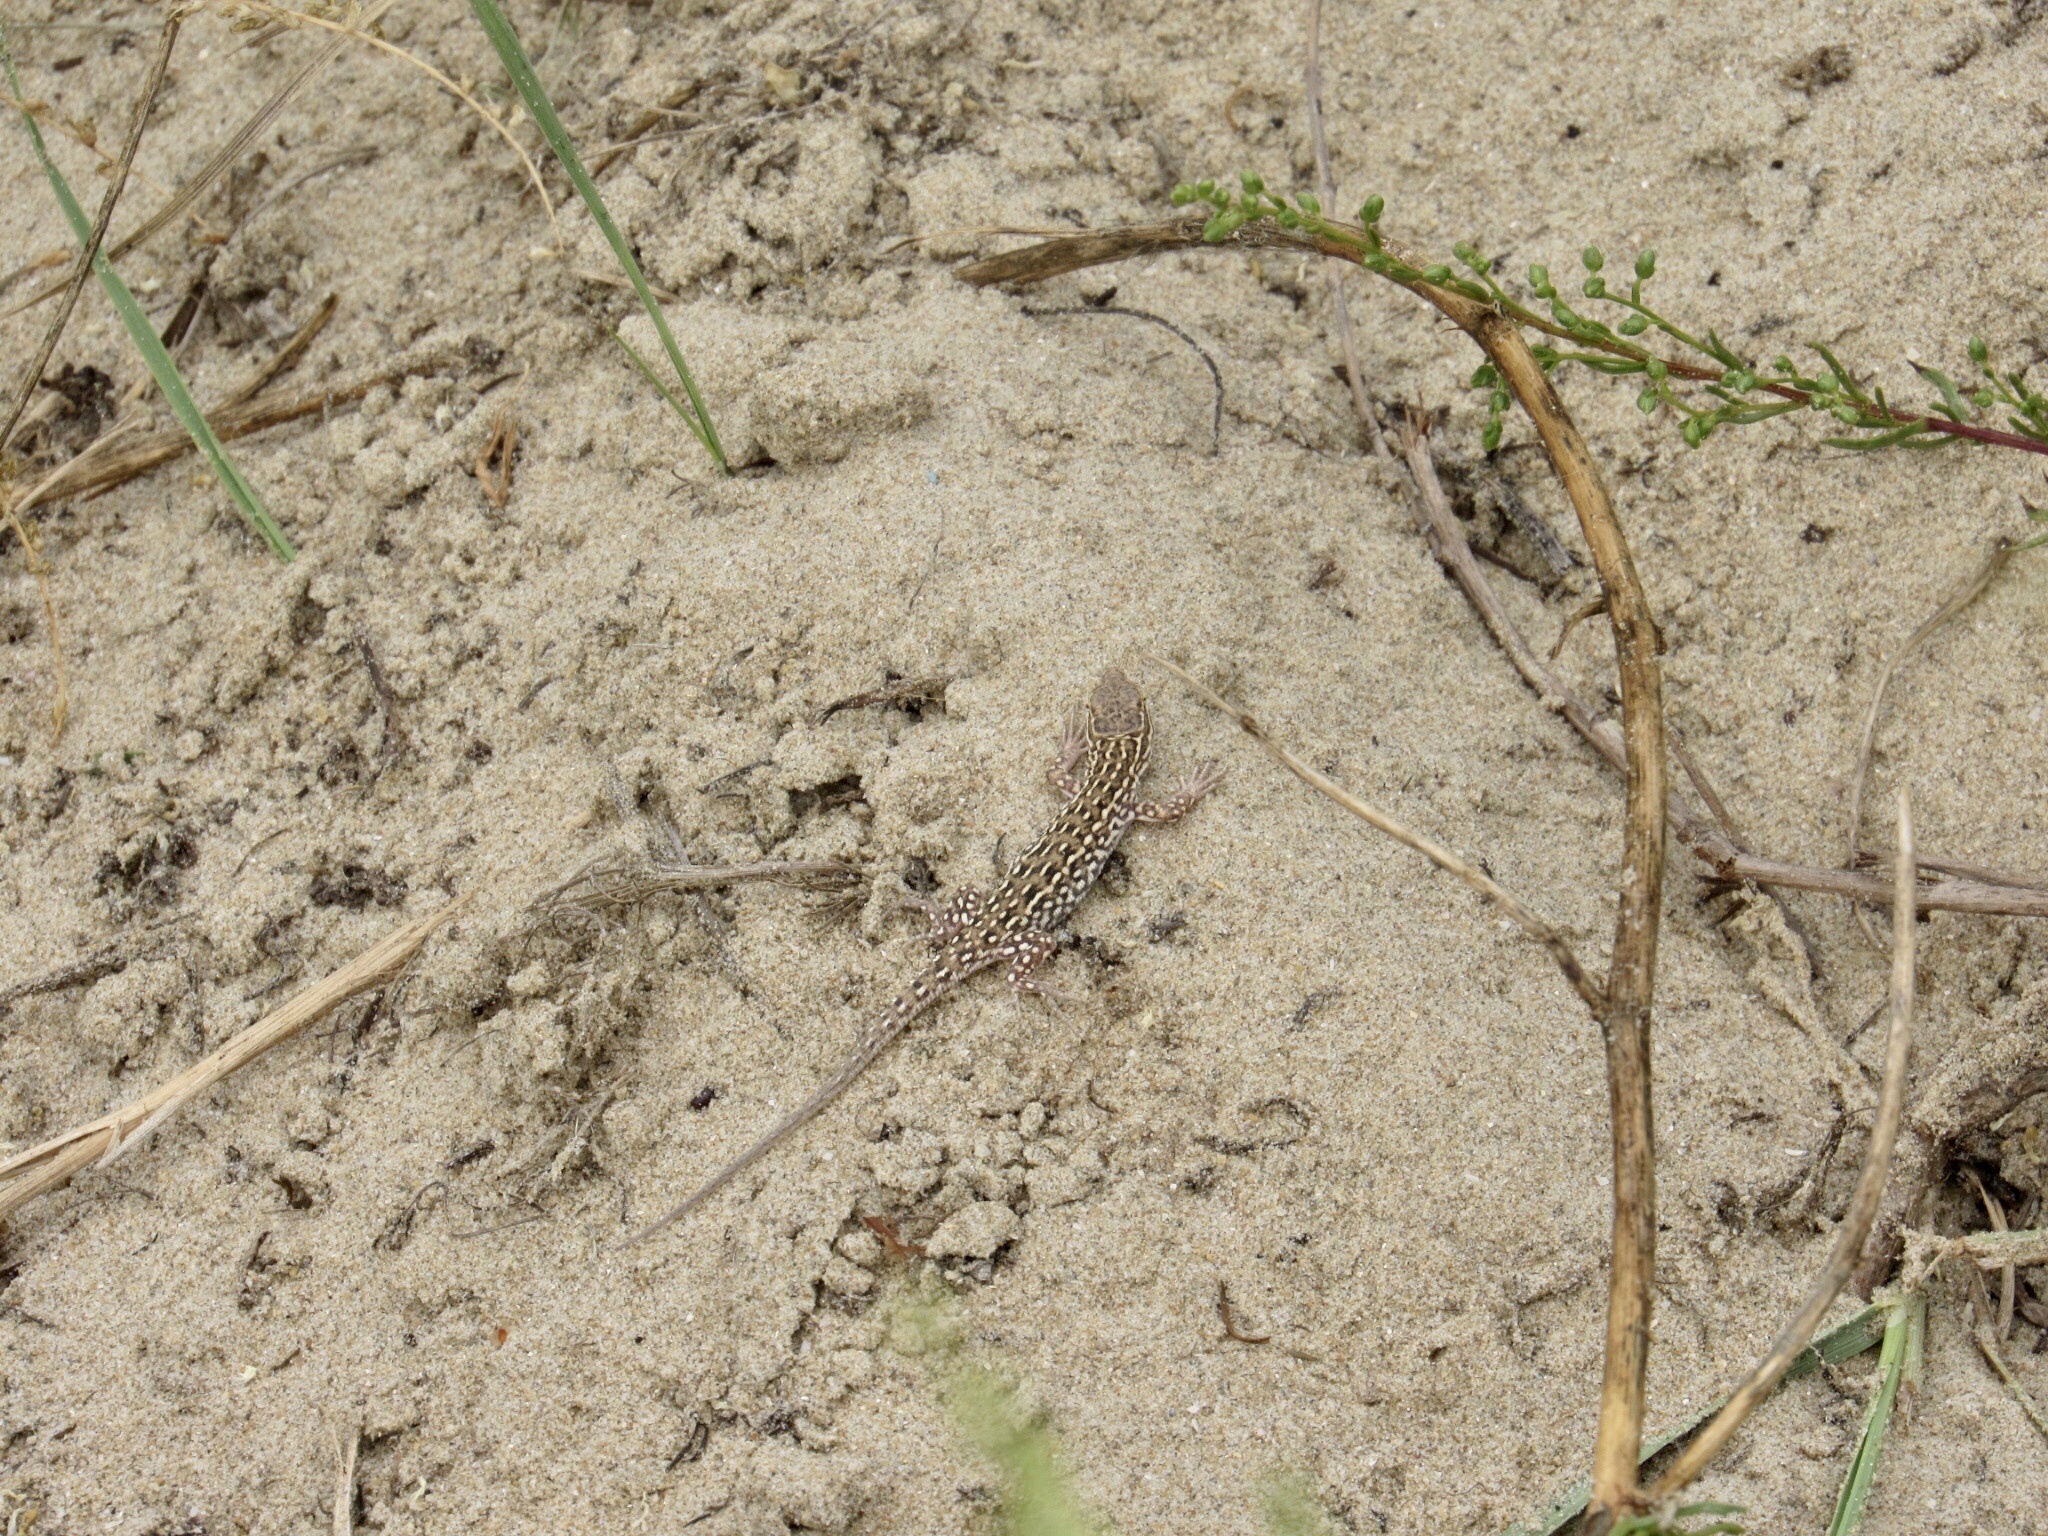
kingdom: Animalia
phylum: Chordata
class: Squamata
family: Lacertidae
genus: Eremias
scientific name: Eremias arguta
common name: Racerunner
